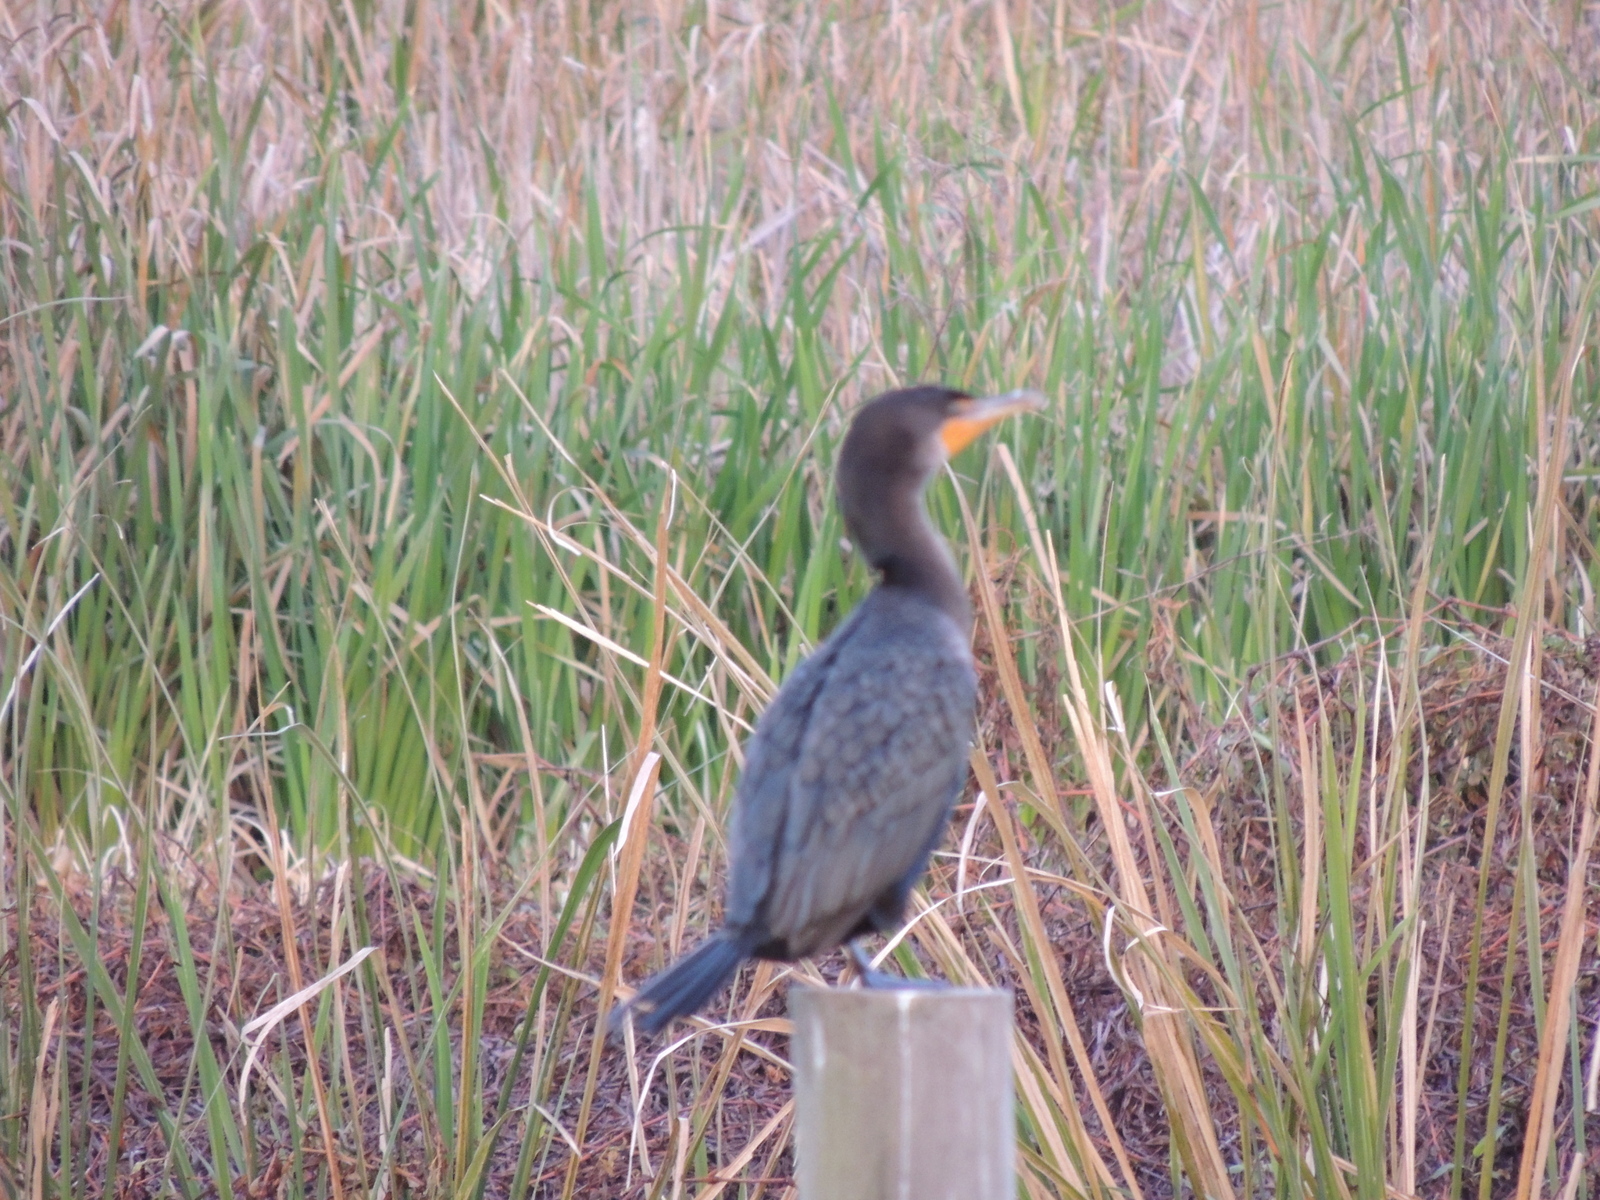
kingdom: Animalia
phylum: Chordata
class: Aves
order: Suliformes
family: Phalacrocoracidae
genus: Phalacrocorax
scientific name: Phalacrocorax auritus
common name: Double-crested cormorant
